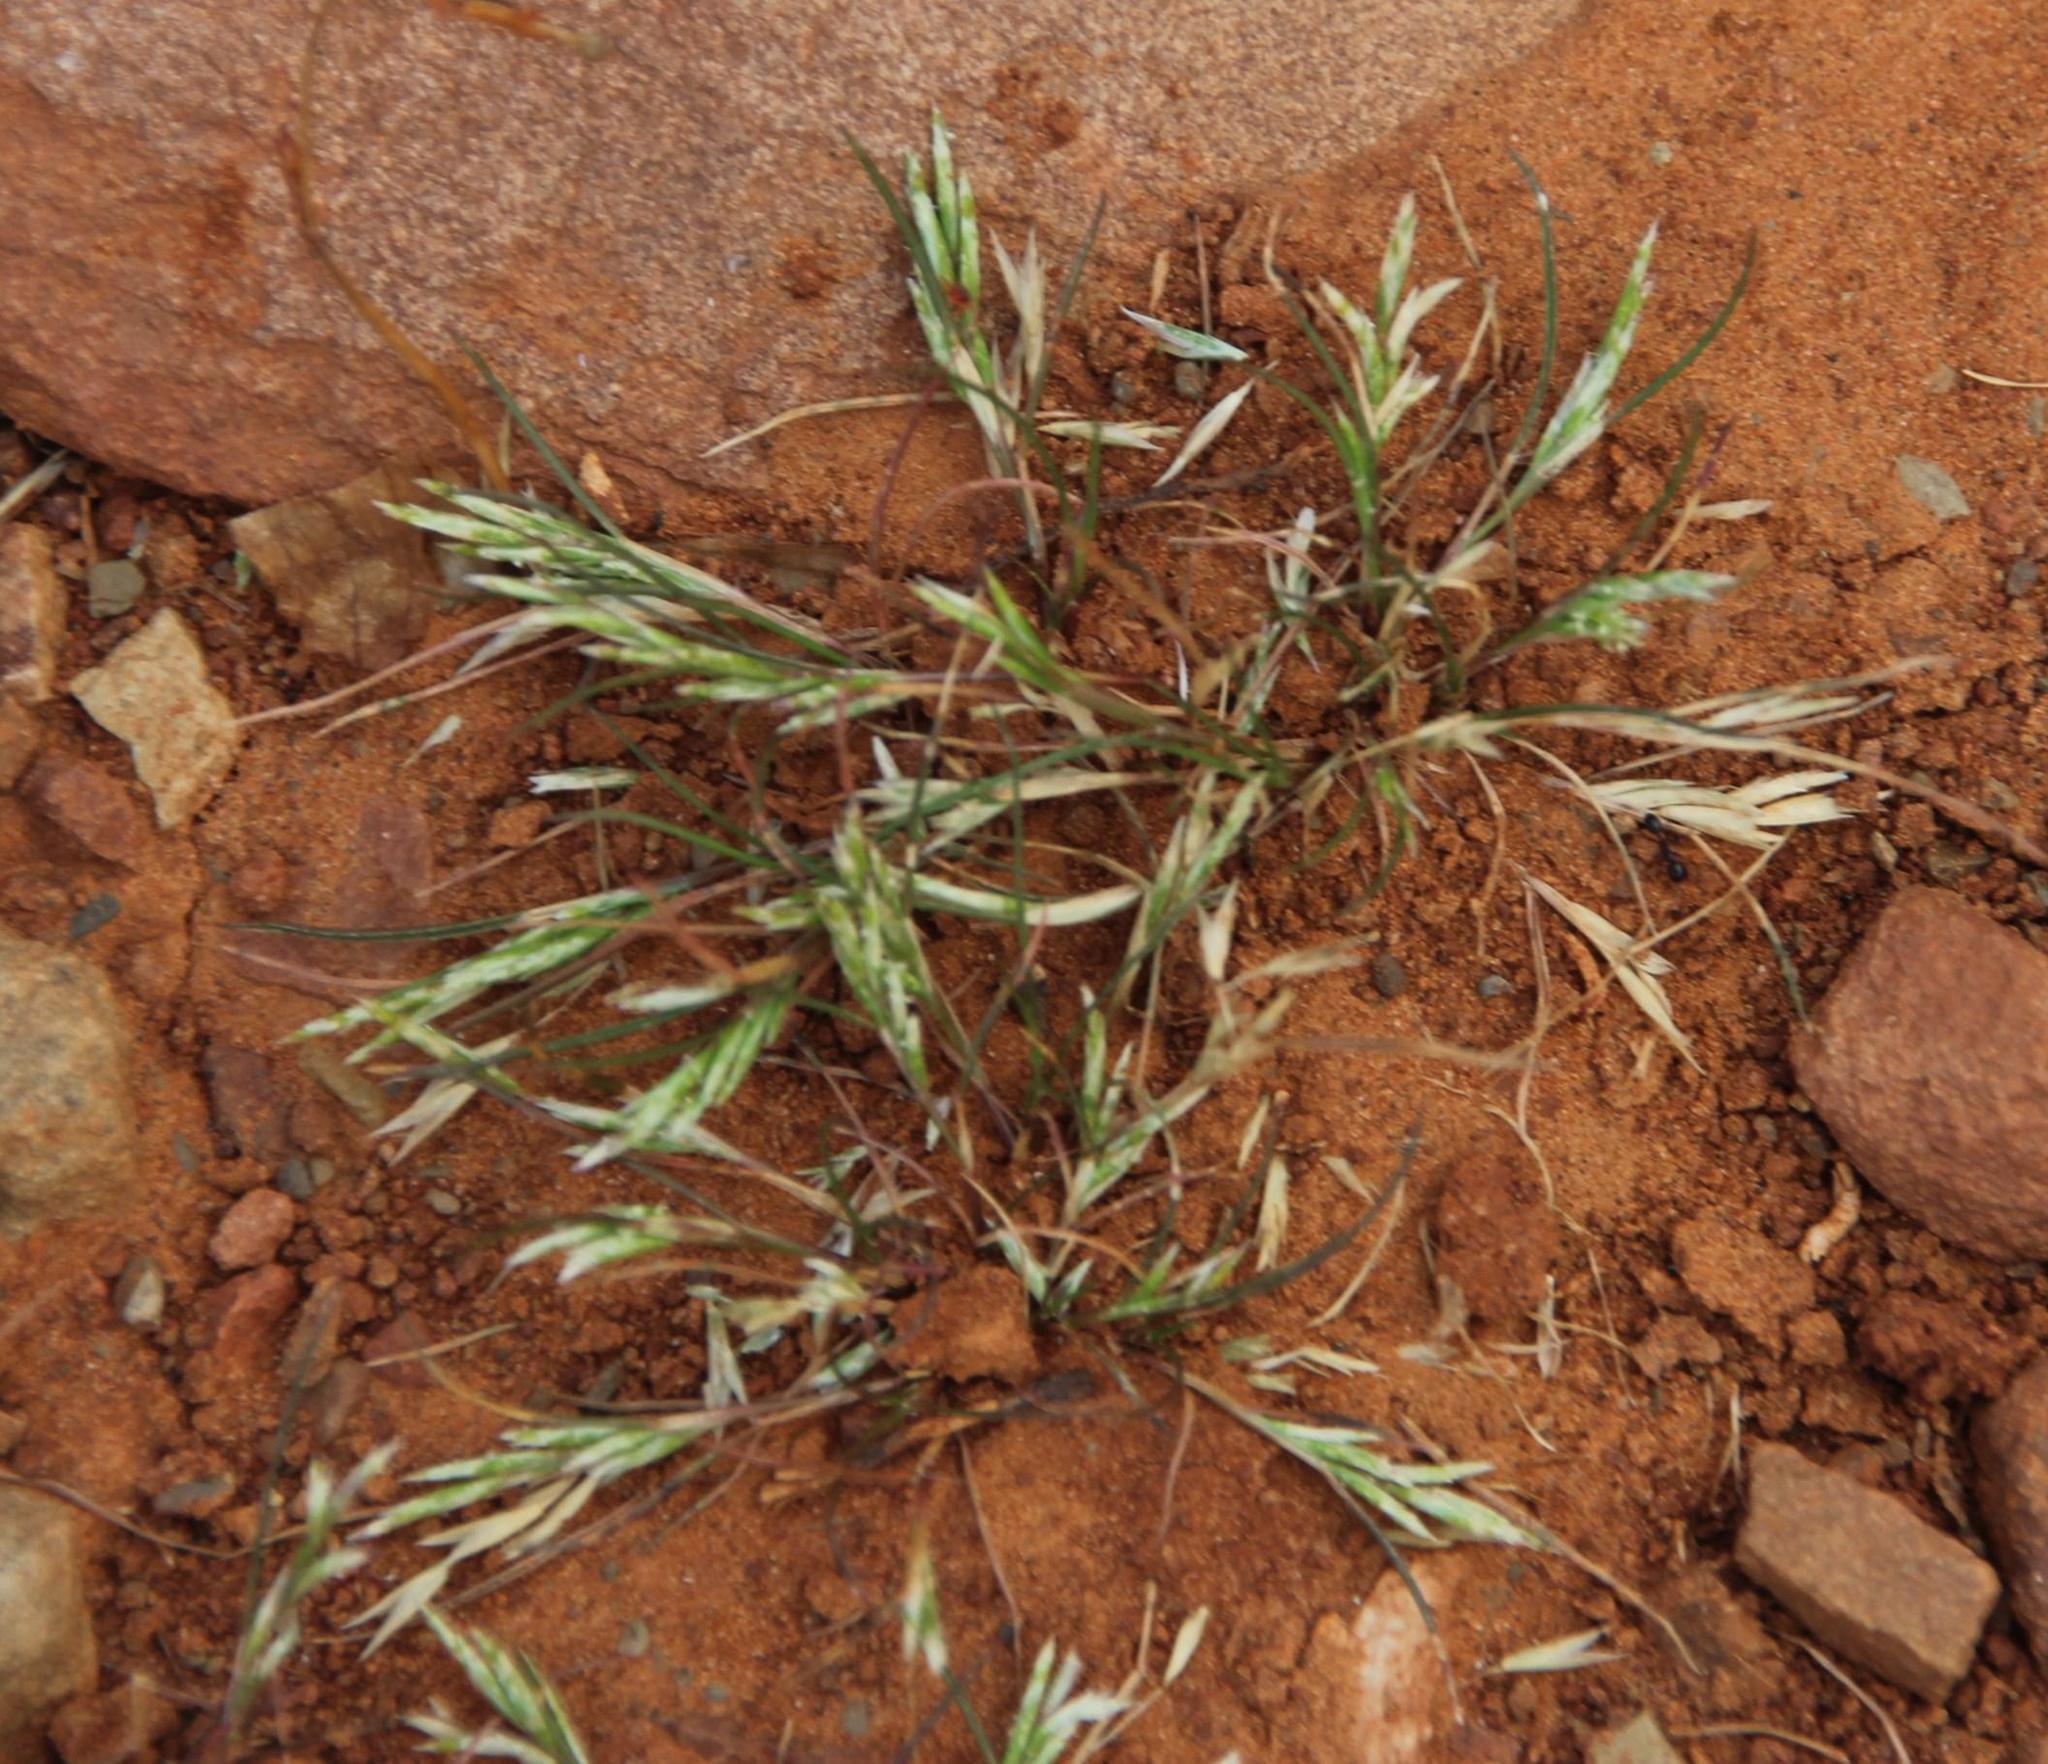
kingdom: Plantae
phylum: Tracheophyta
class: Liliopsida
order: Poales
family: Poaceae
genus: Schismus
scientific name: Schismus barbatus
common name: Kelch-grass
